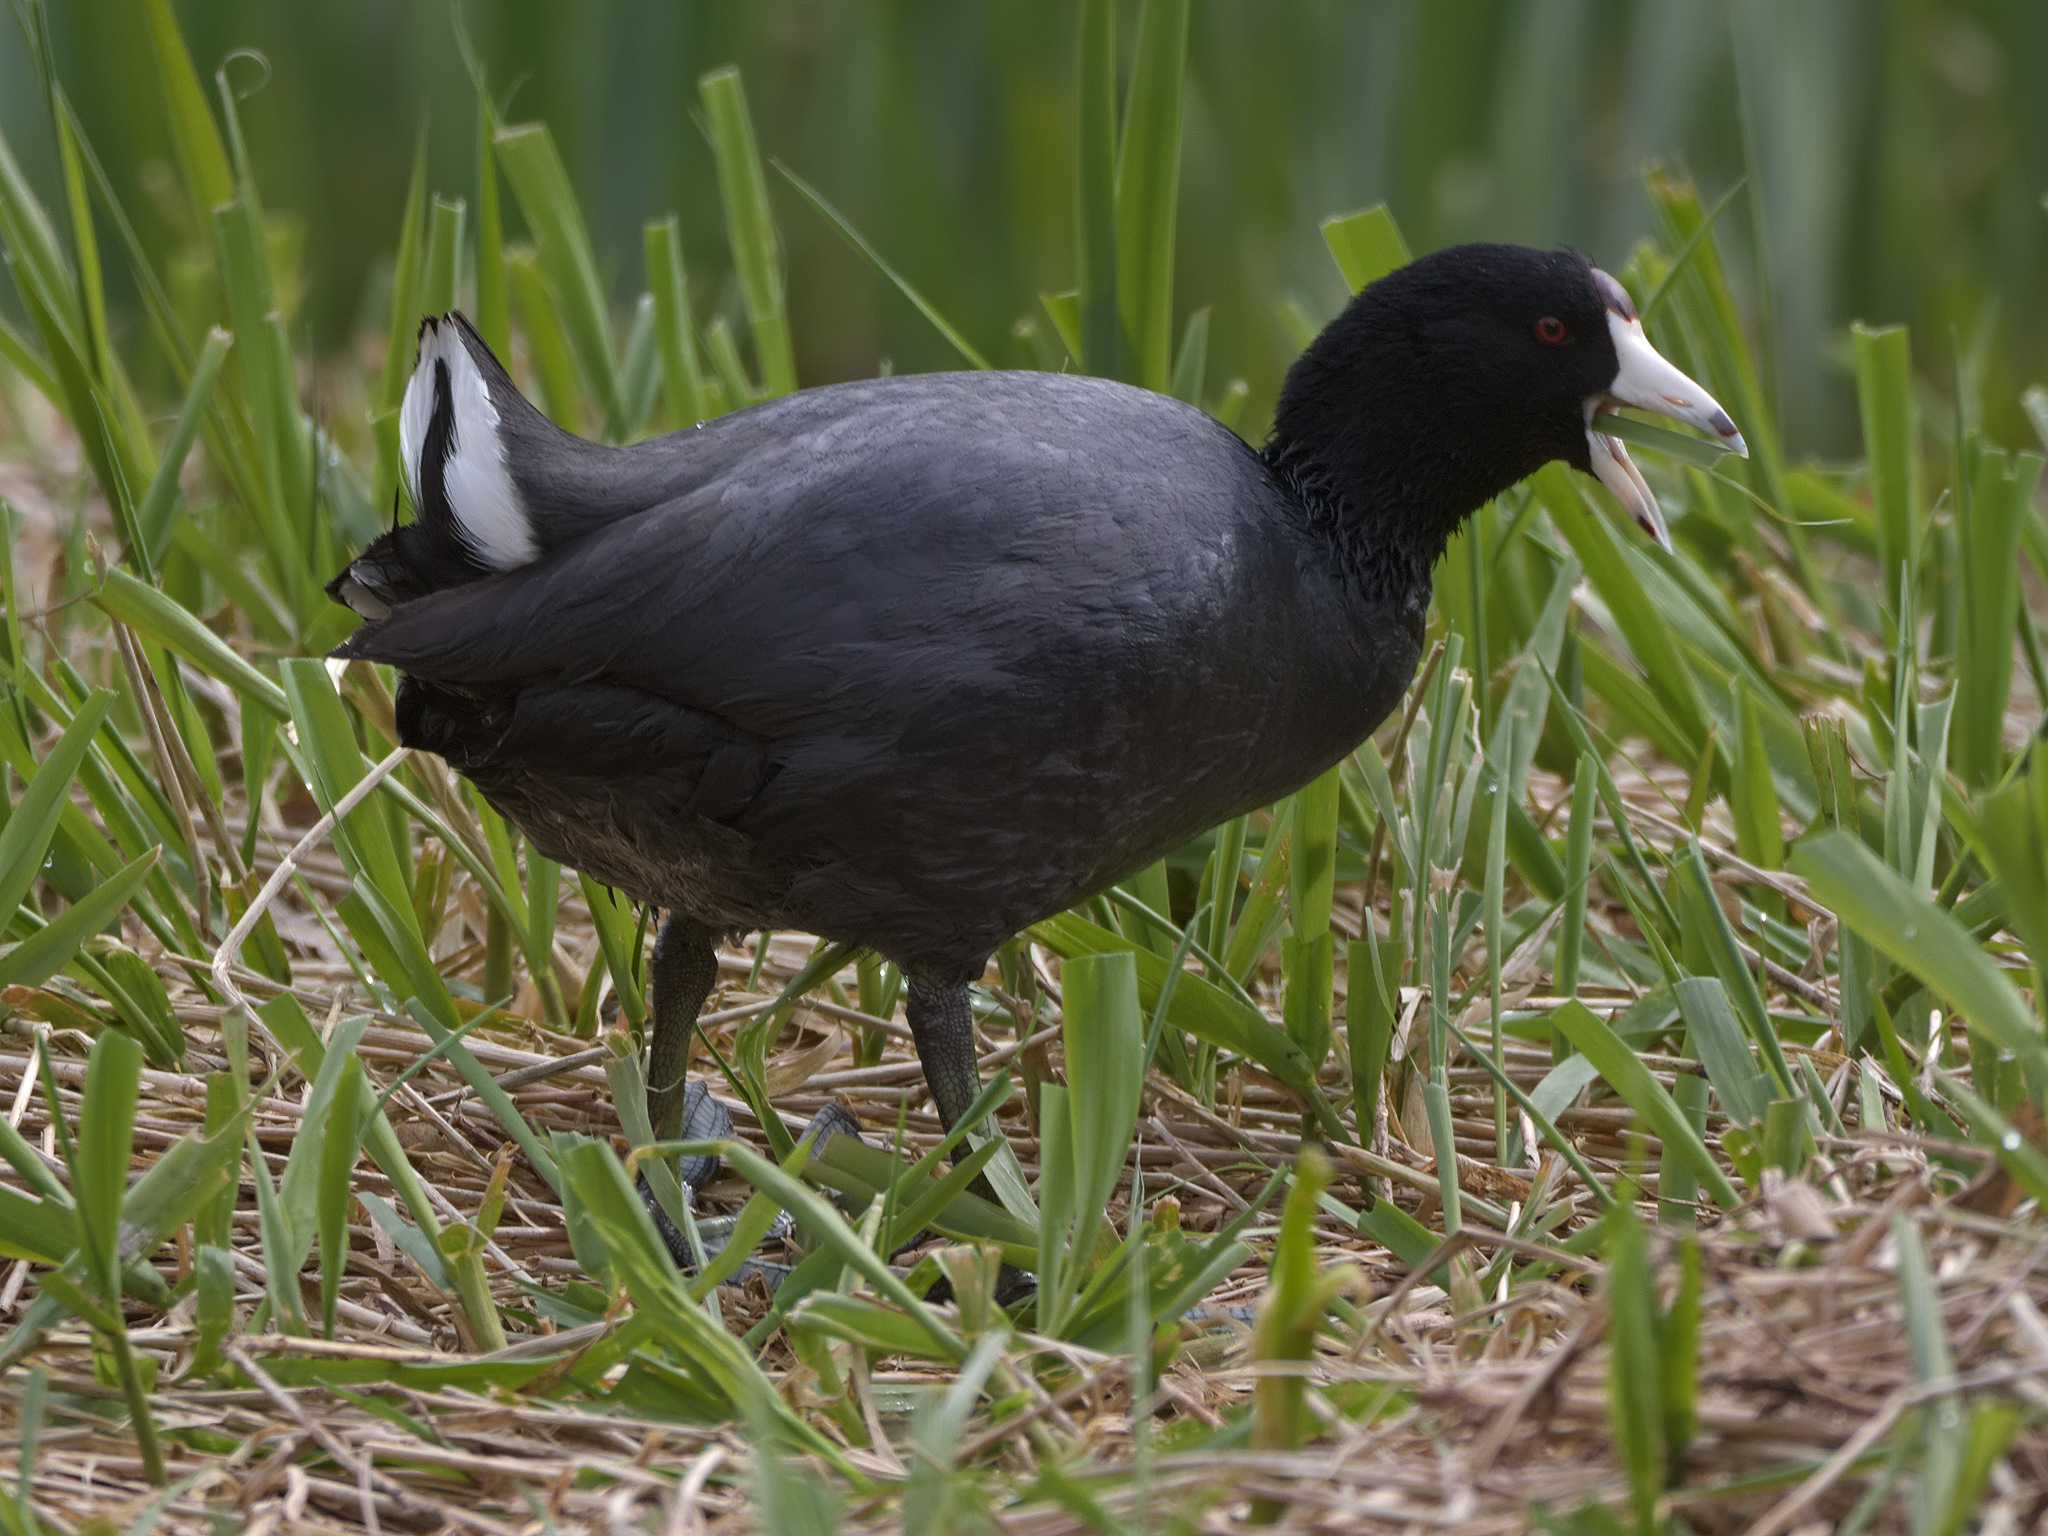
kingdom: Animalia
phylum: Chordata
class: Aves
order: Gruiformes
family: Rallidae
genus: Fulica
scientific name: Fulica americana
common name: American coot
